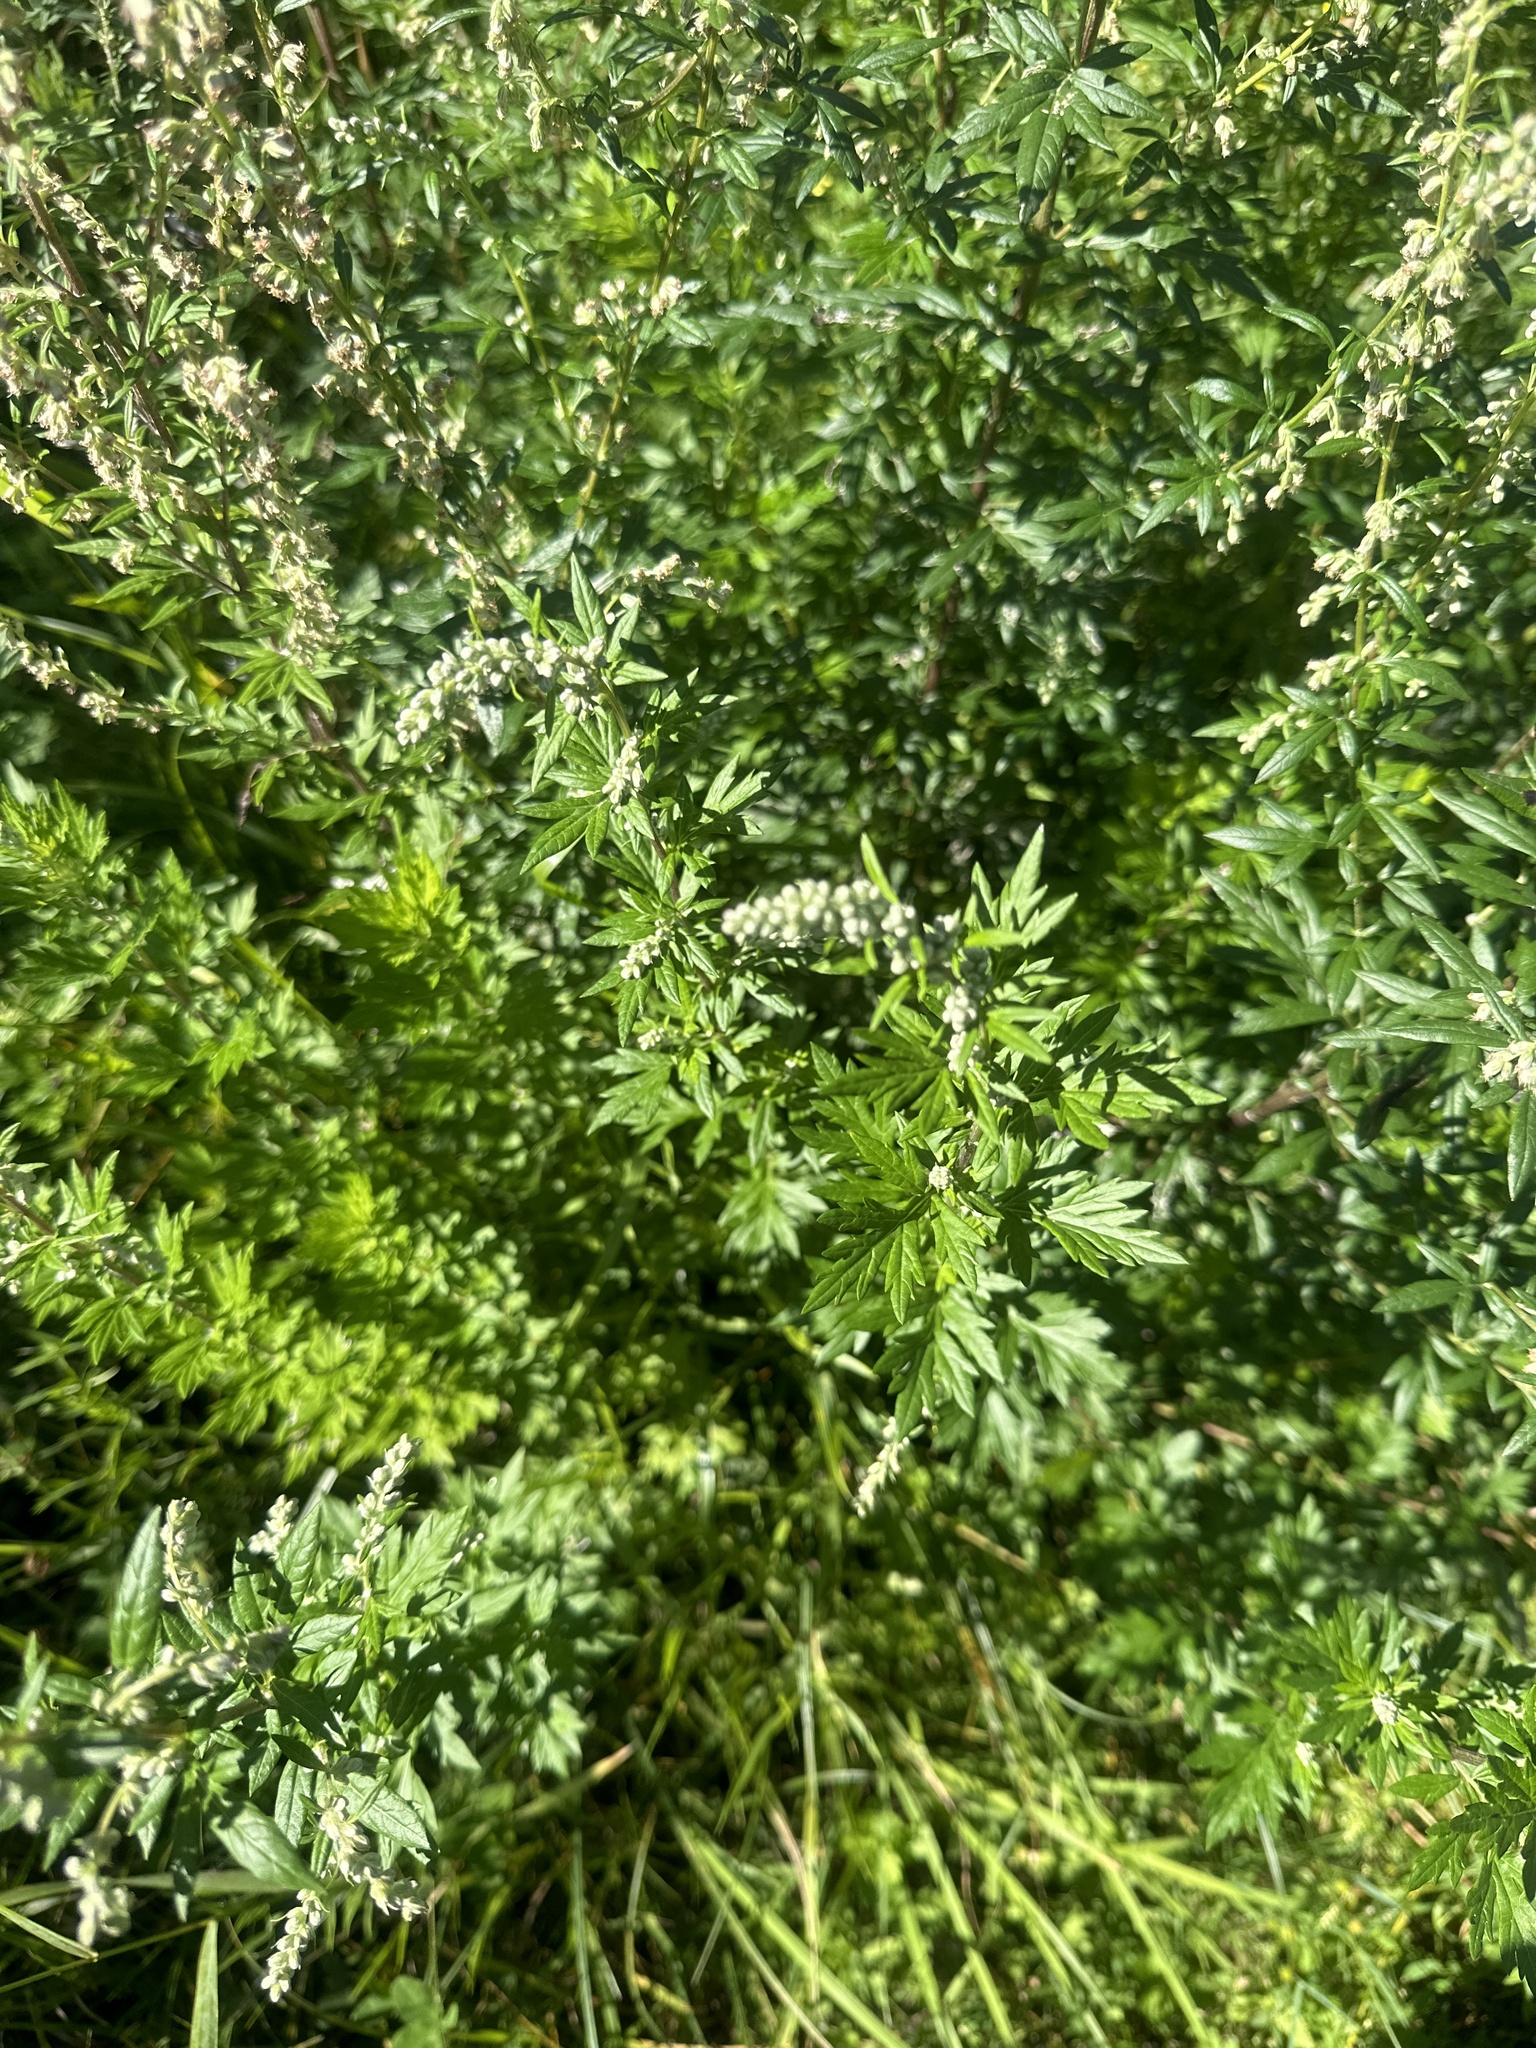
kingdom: Plantae
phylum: Tracheophyta
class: Magnoliopsida
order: Asterales
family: Asteraceae
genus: Artemisia
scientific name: Artemisia vulgaris
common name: Mugwort
